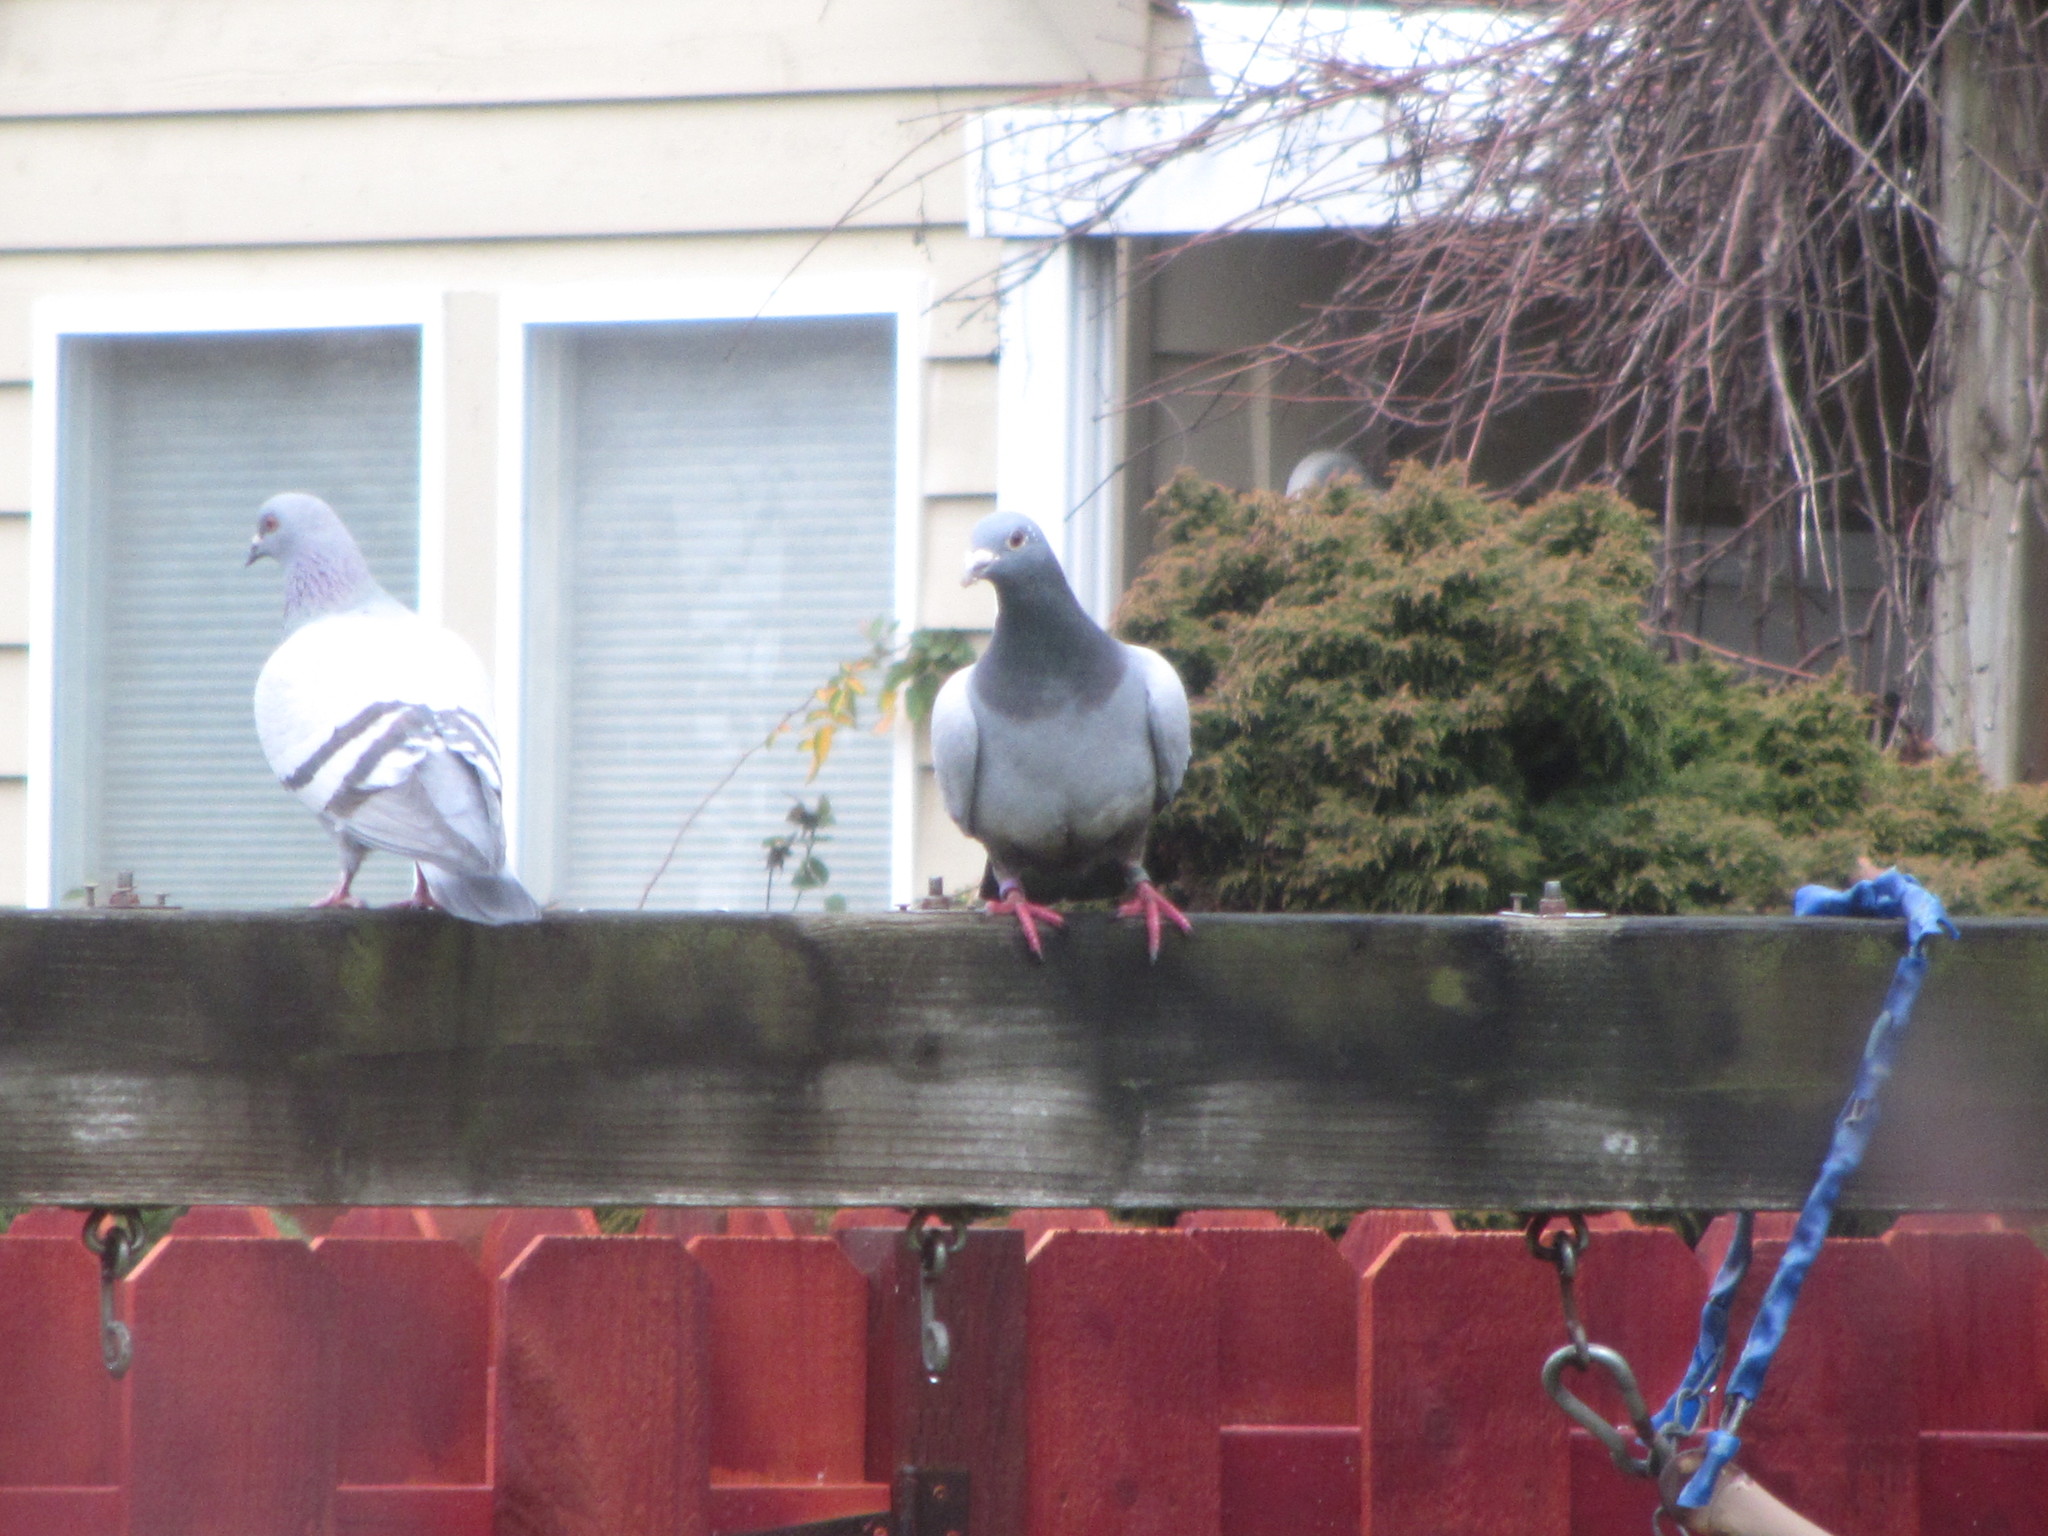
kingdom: Animalia
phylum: Chordata
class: Aves
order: Columbiformes
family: Columbidae
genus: Columba
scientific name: Columba livia
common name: Rock pigeon
